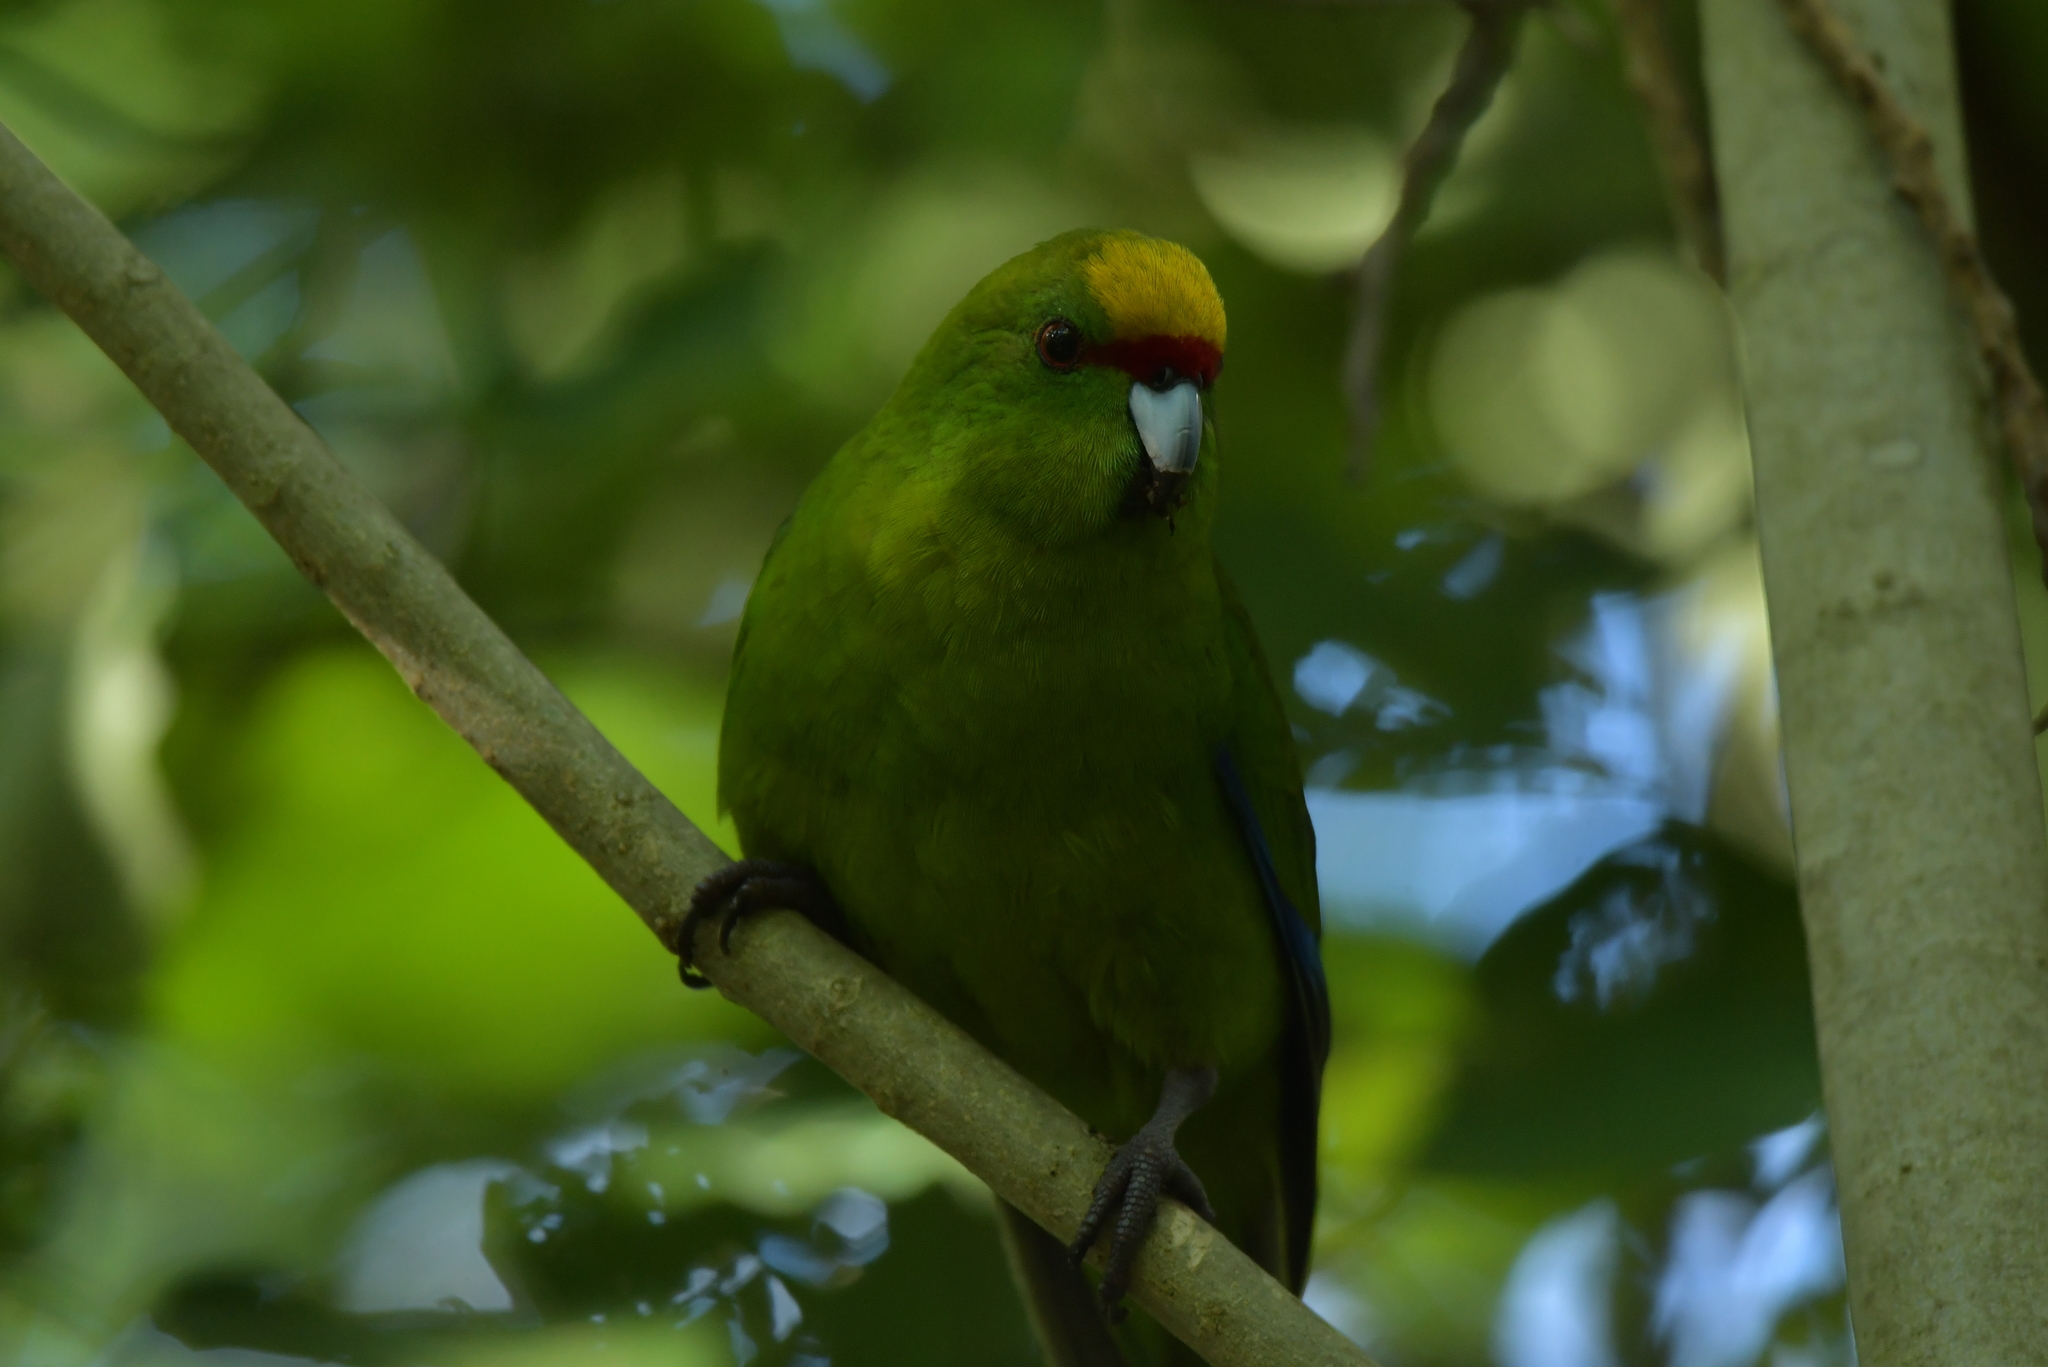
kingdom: Animalia
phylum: Chordata
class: Aves
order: Psittaciformes
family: Psittacidae
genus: Cyanoramphus
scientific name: Cyanoramphus auriceps
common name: Yellow-crowned parakeet
